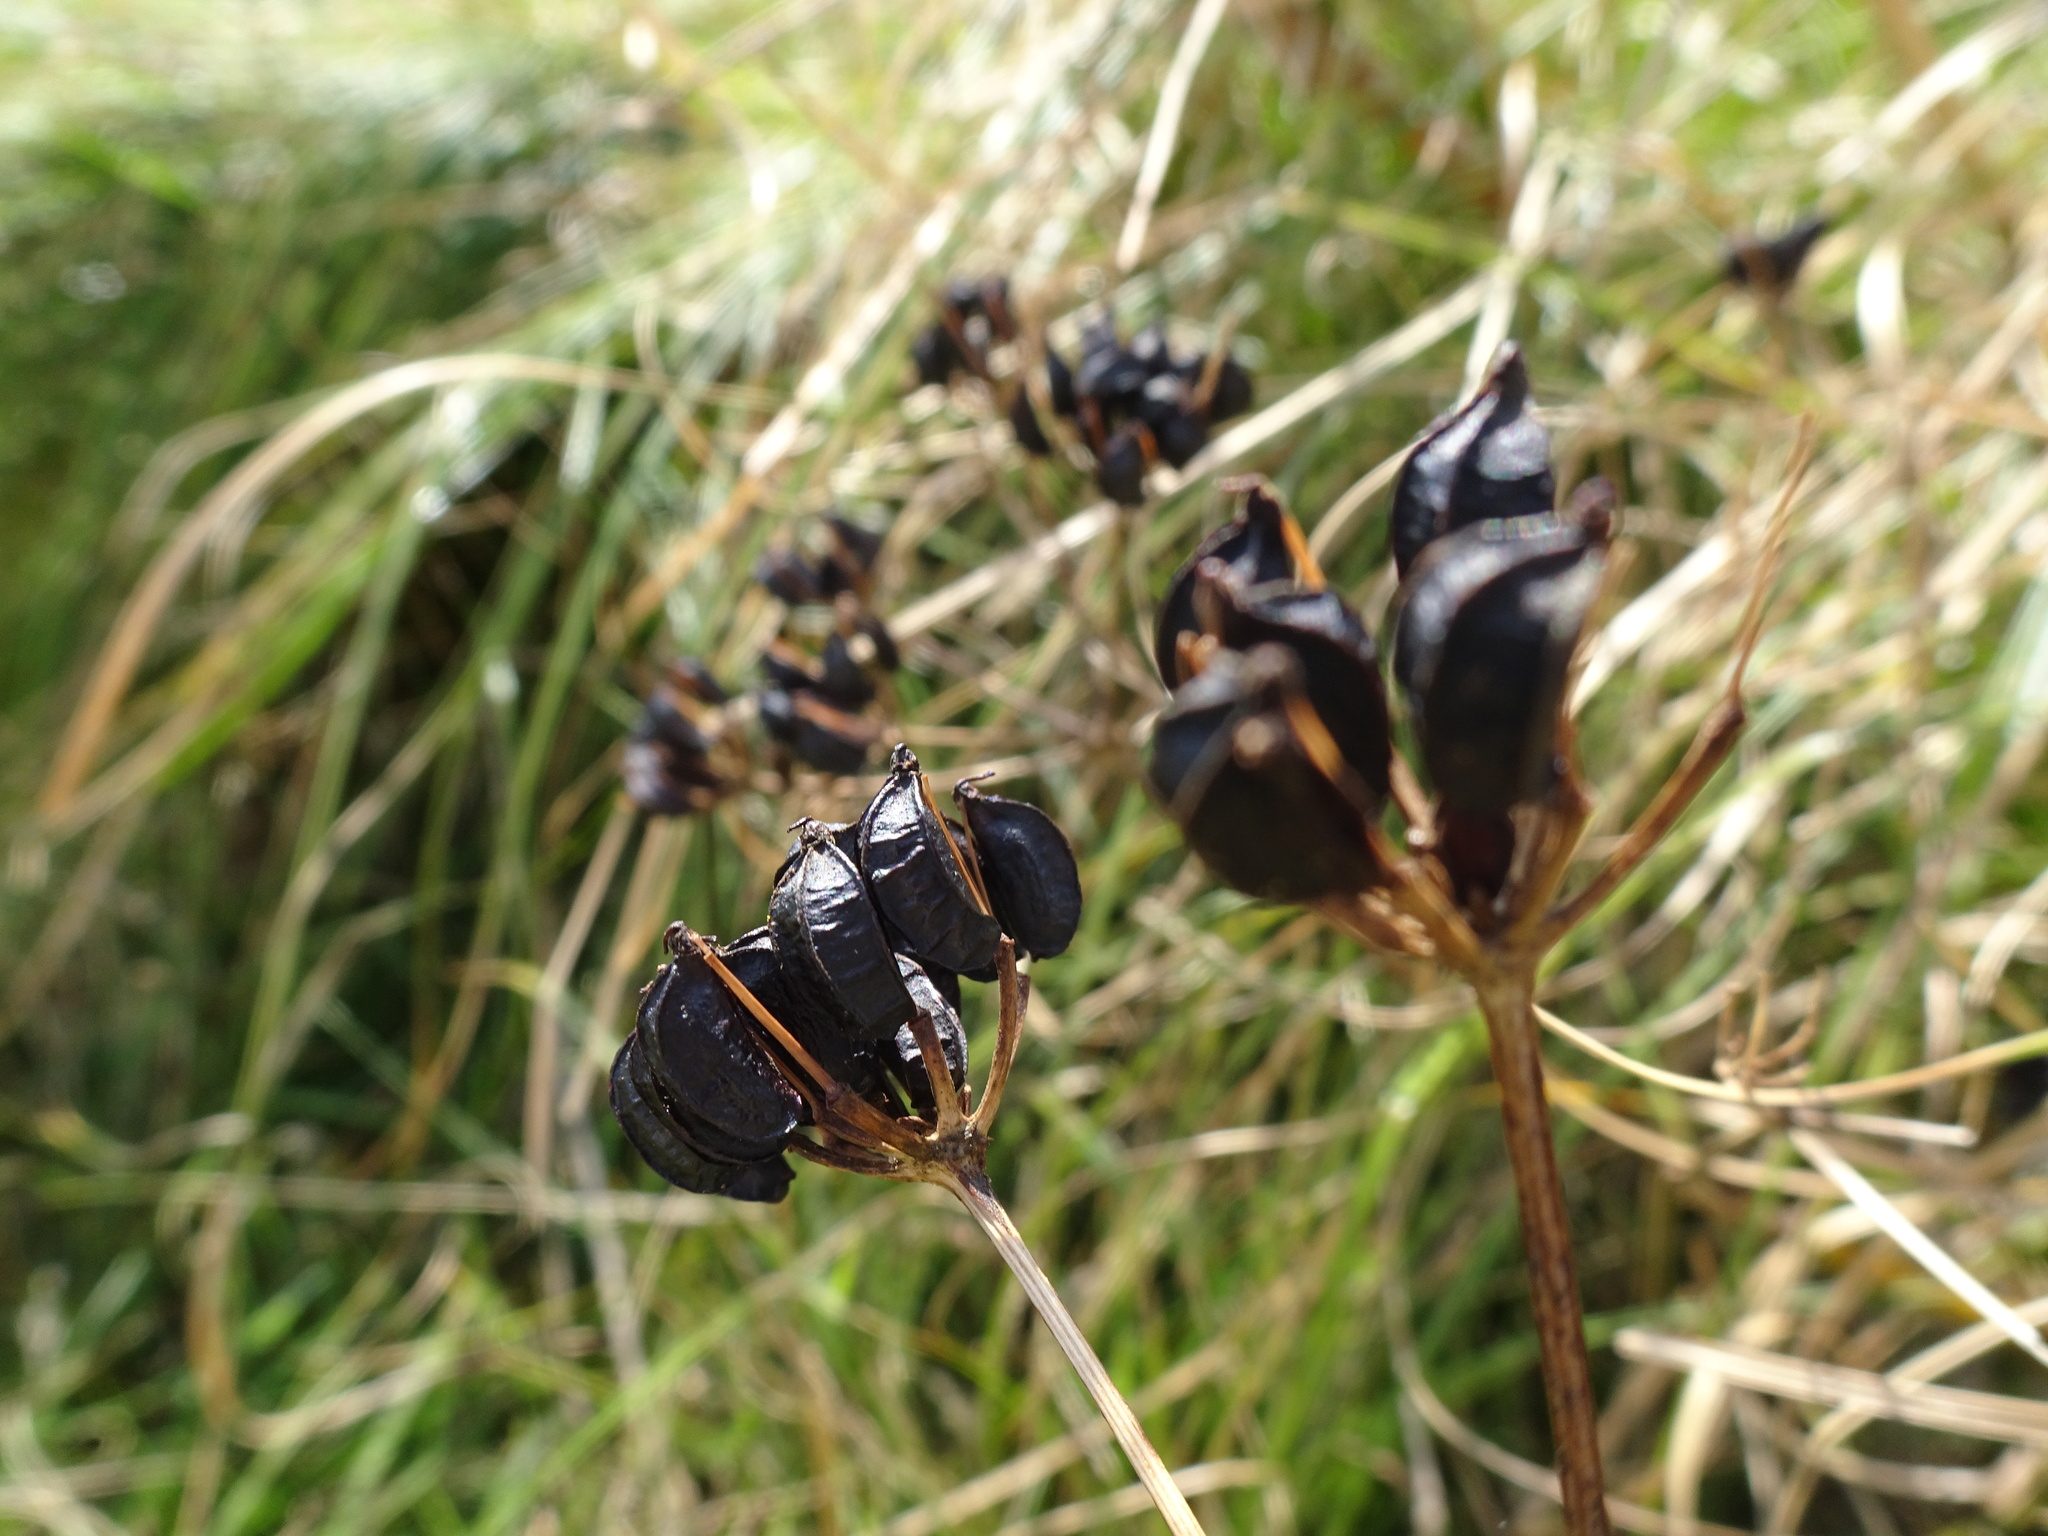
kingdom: Plantae
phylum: Tracheophyta
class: Magnoliopsida
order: Apiales
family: Apiaceae
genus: Smyrnium
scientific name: Smyrnium olusatrum
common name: Alexanders
